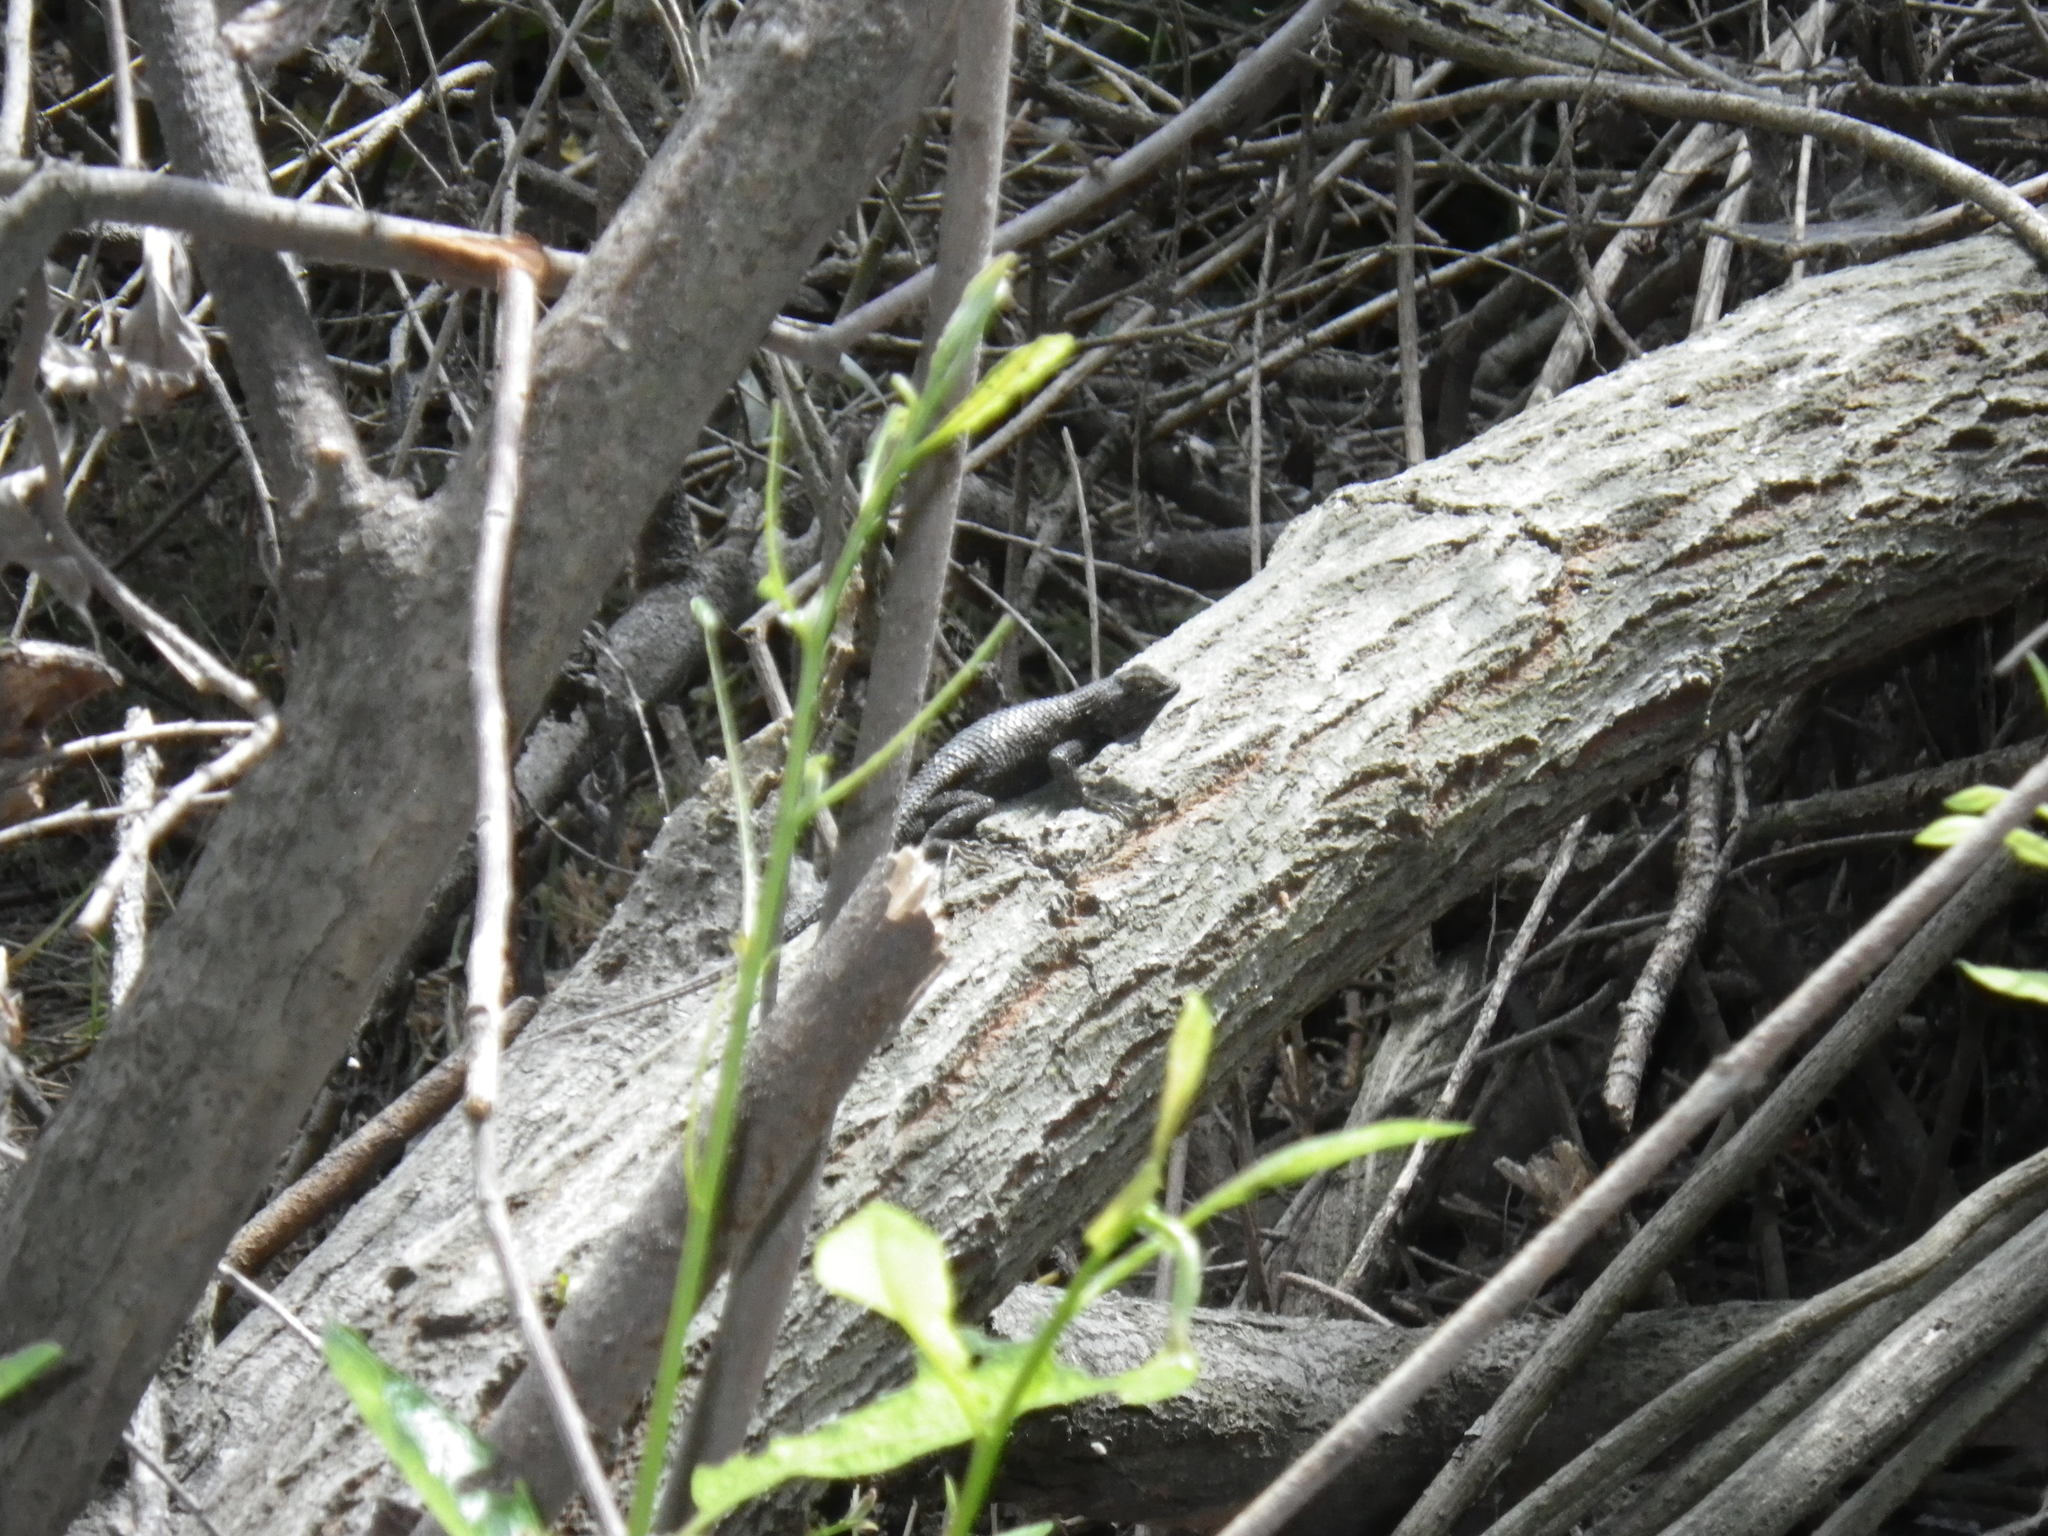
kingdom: Animalia
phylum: Chordata
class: Squamata
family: Phrynosomatidae
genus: Sceloporus
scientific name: Sceloporus occidentalis
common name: Western fence lizard
